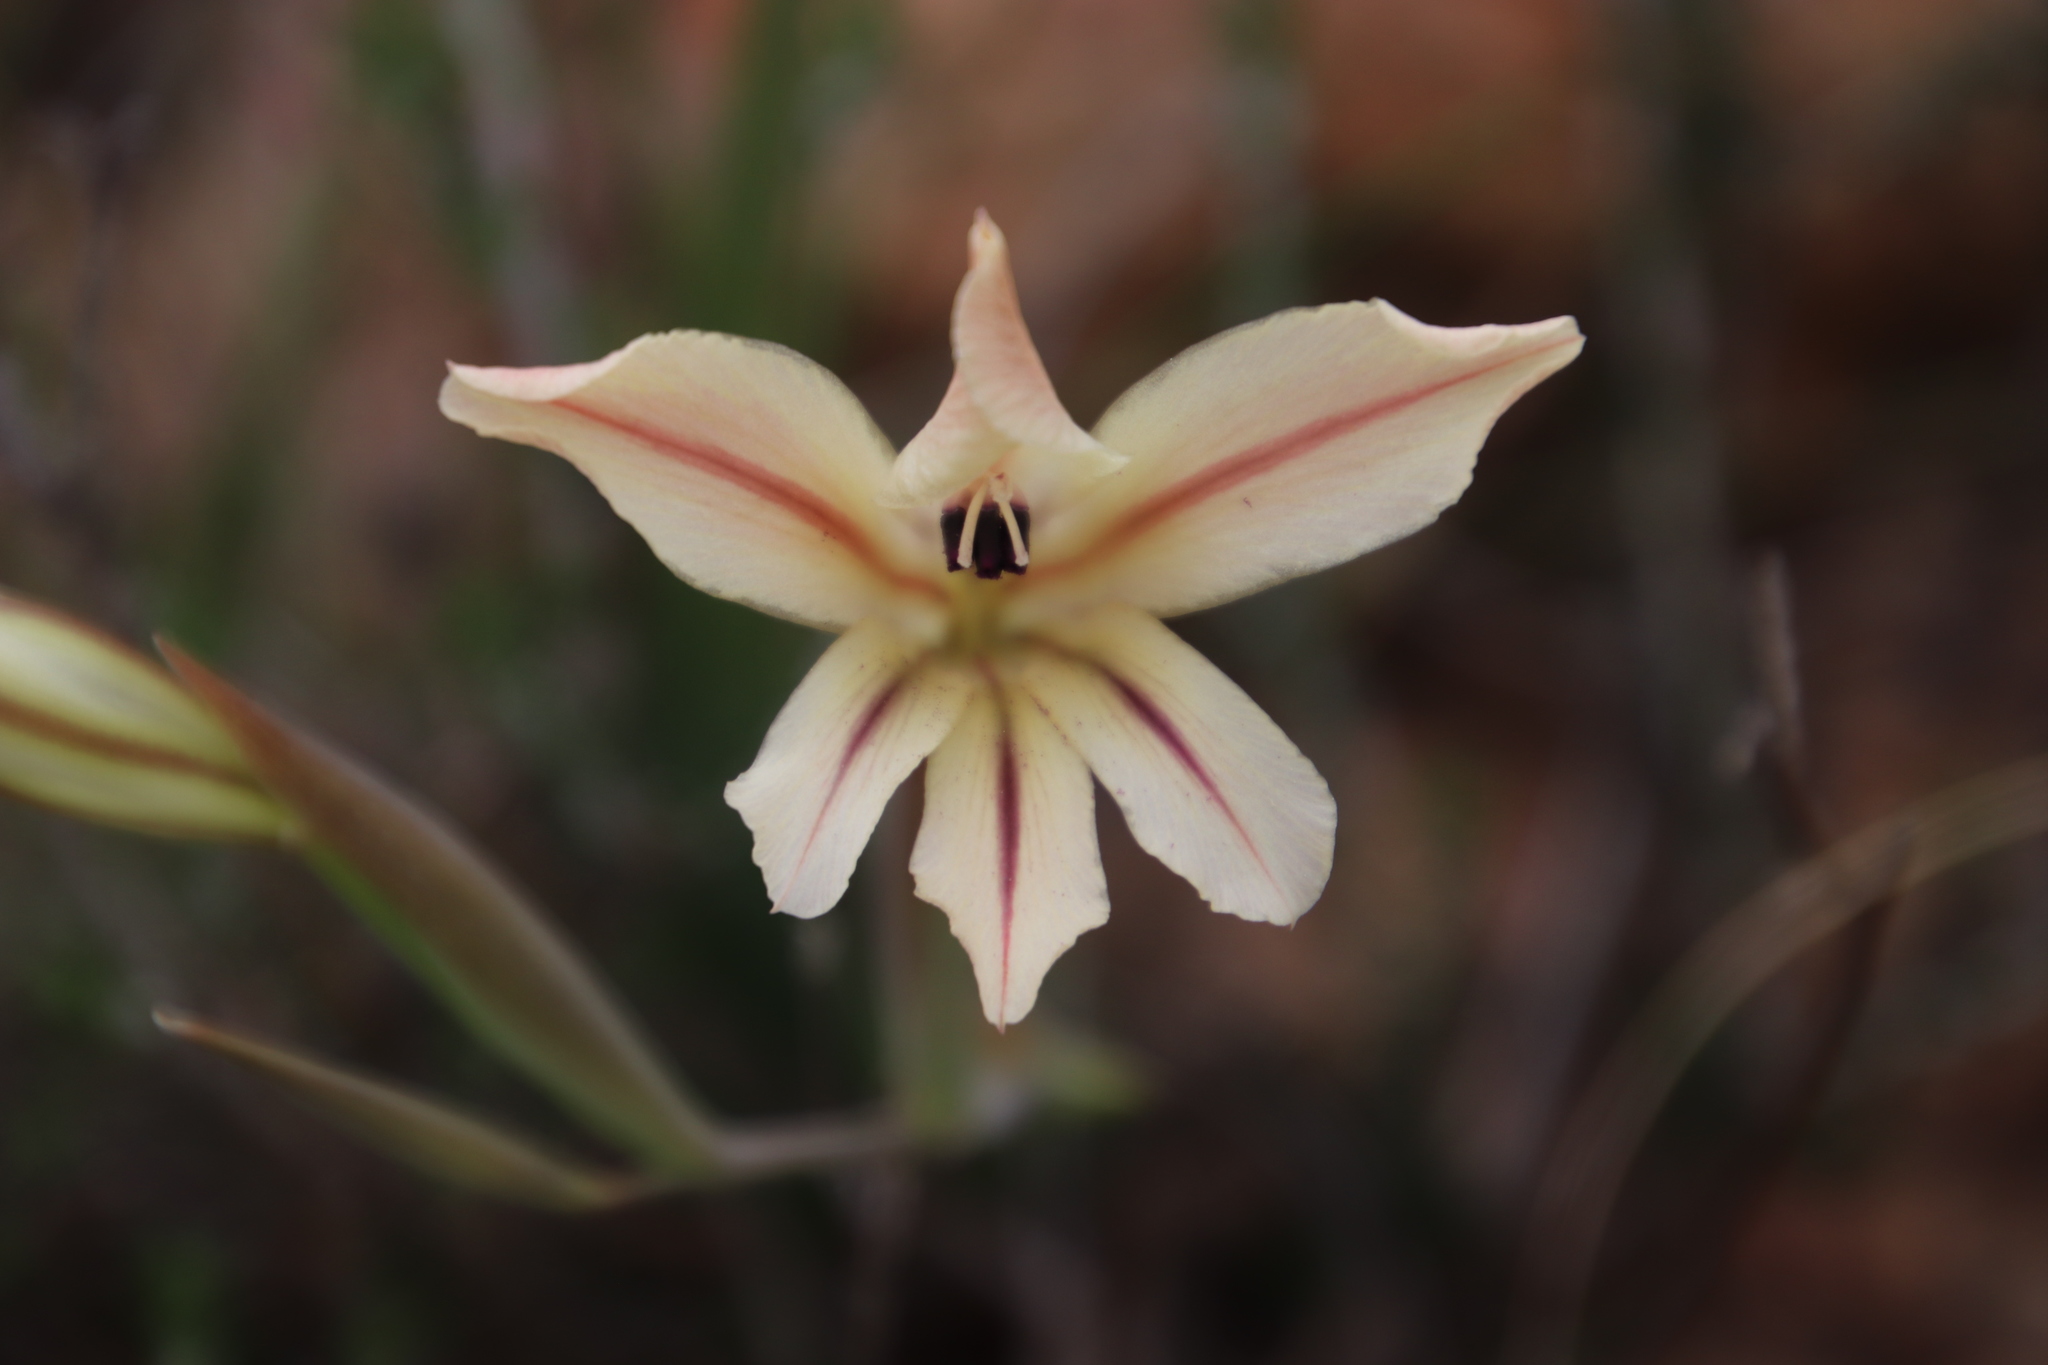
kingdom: Plantae
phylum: Tracheophyta
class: Liliopsida
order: Asparagales
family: Iridaceae
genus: Gladiolus
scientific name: Gladiolus floribundus
